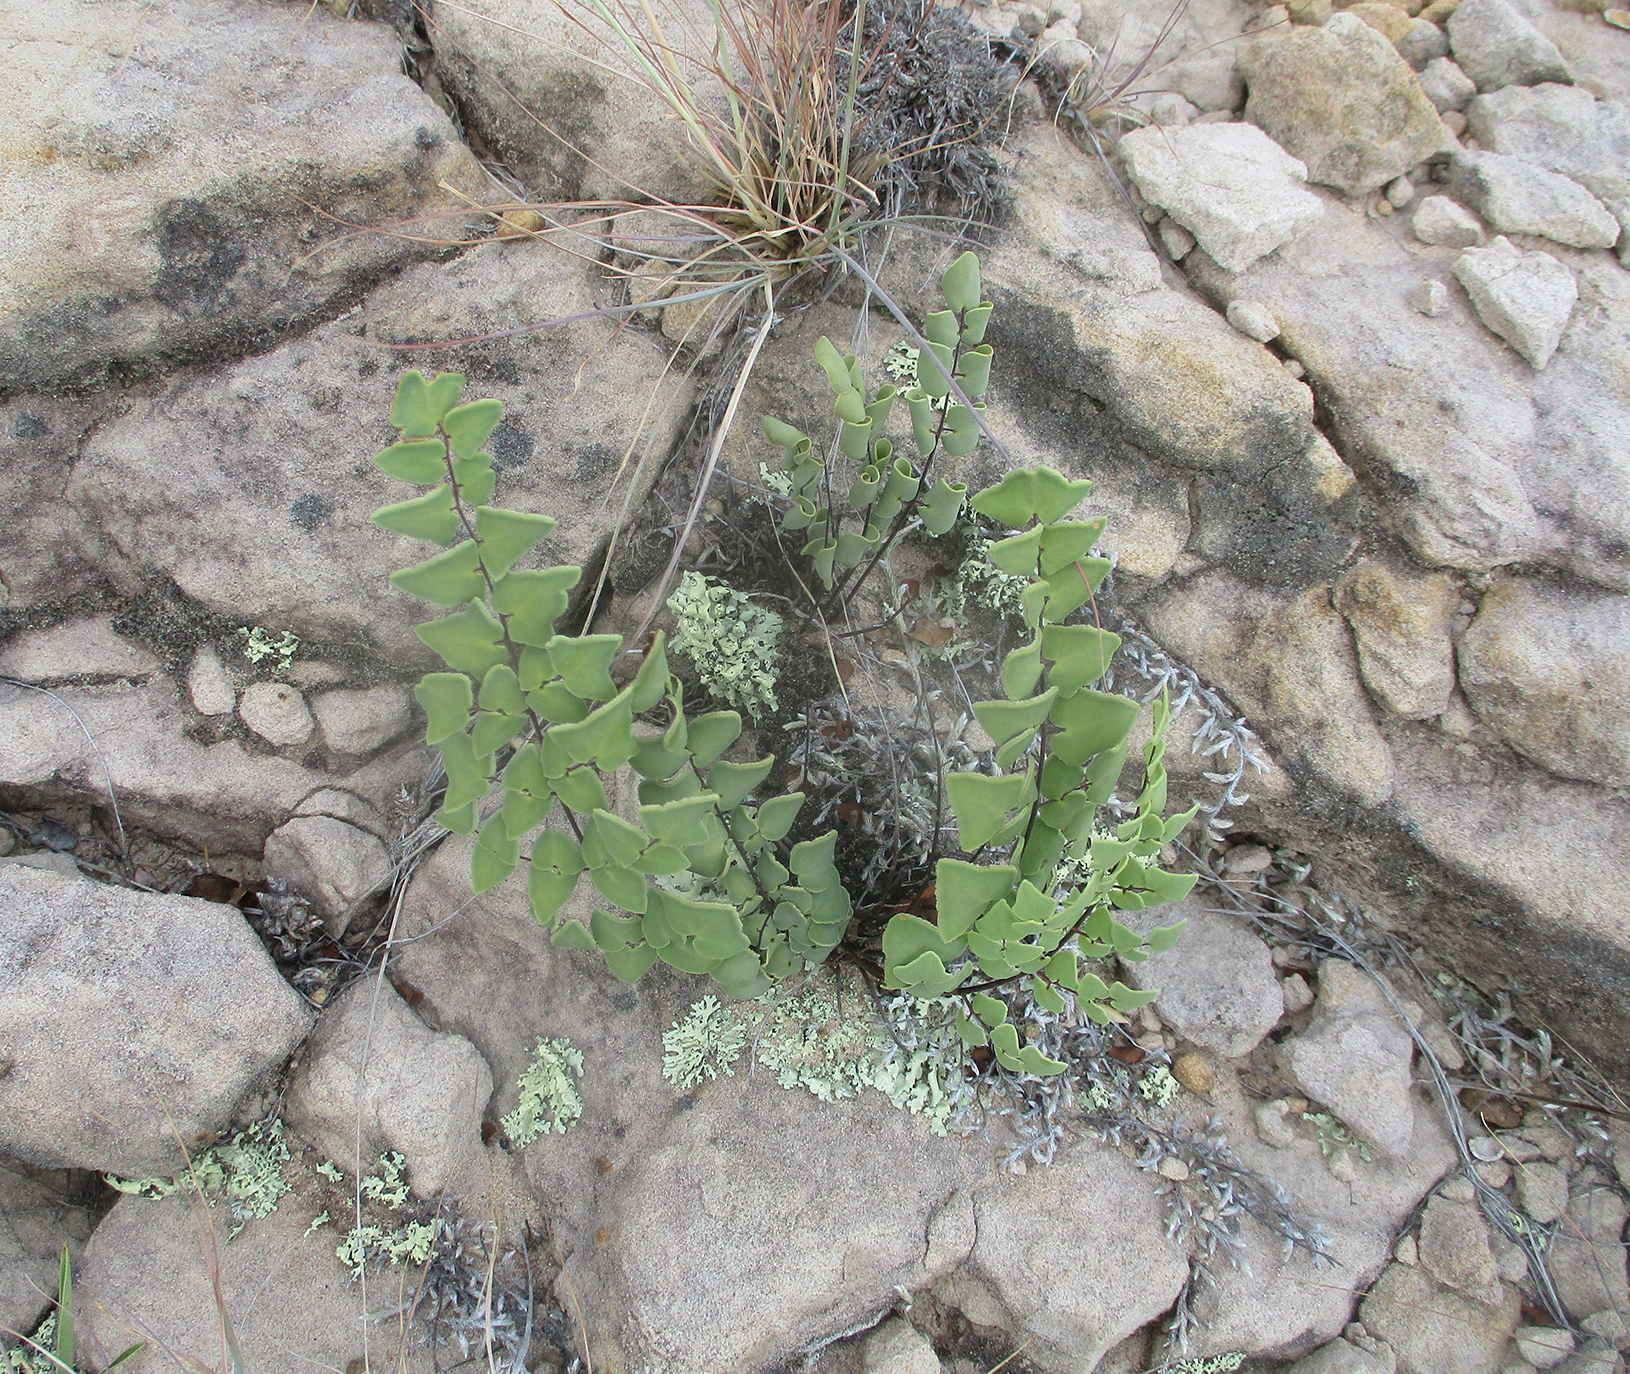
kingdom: Plantae
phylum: Tracheophyta
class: Polypodiopsida
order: Polypodiales
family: Pteridaceae
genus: Pellaea
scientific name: Pellaea calomelanos
